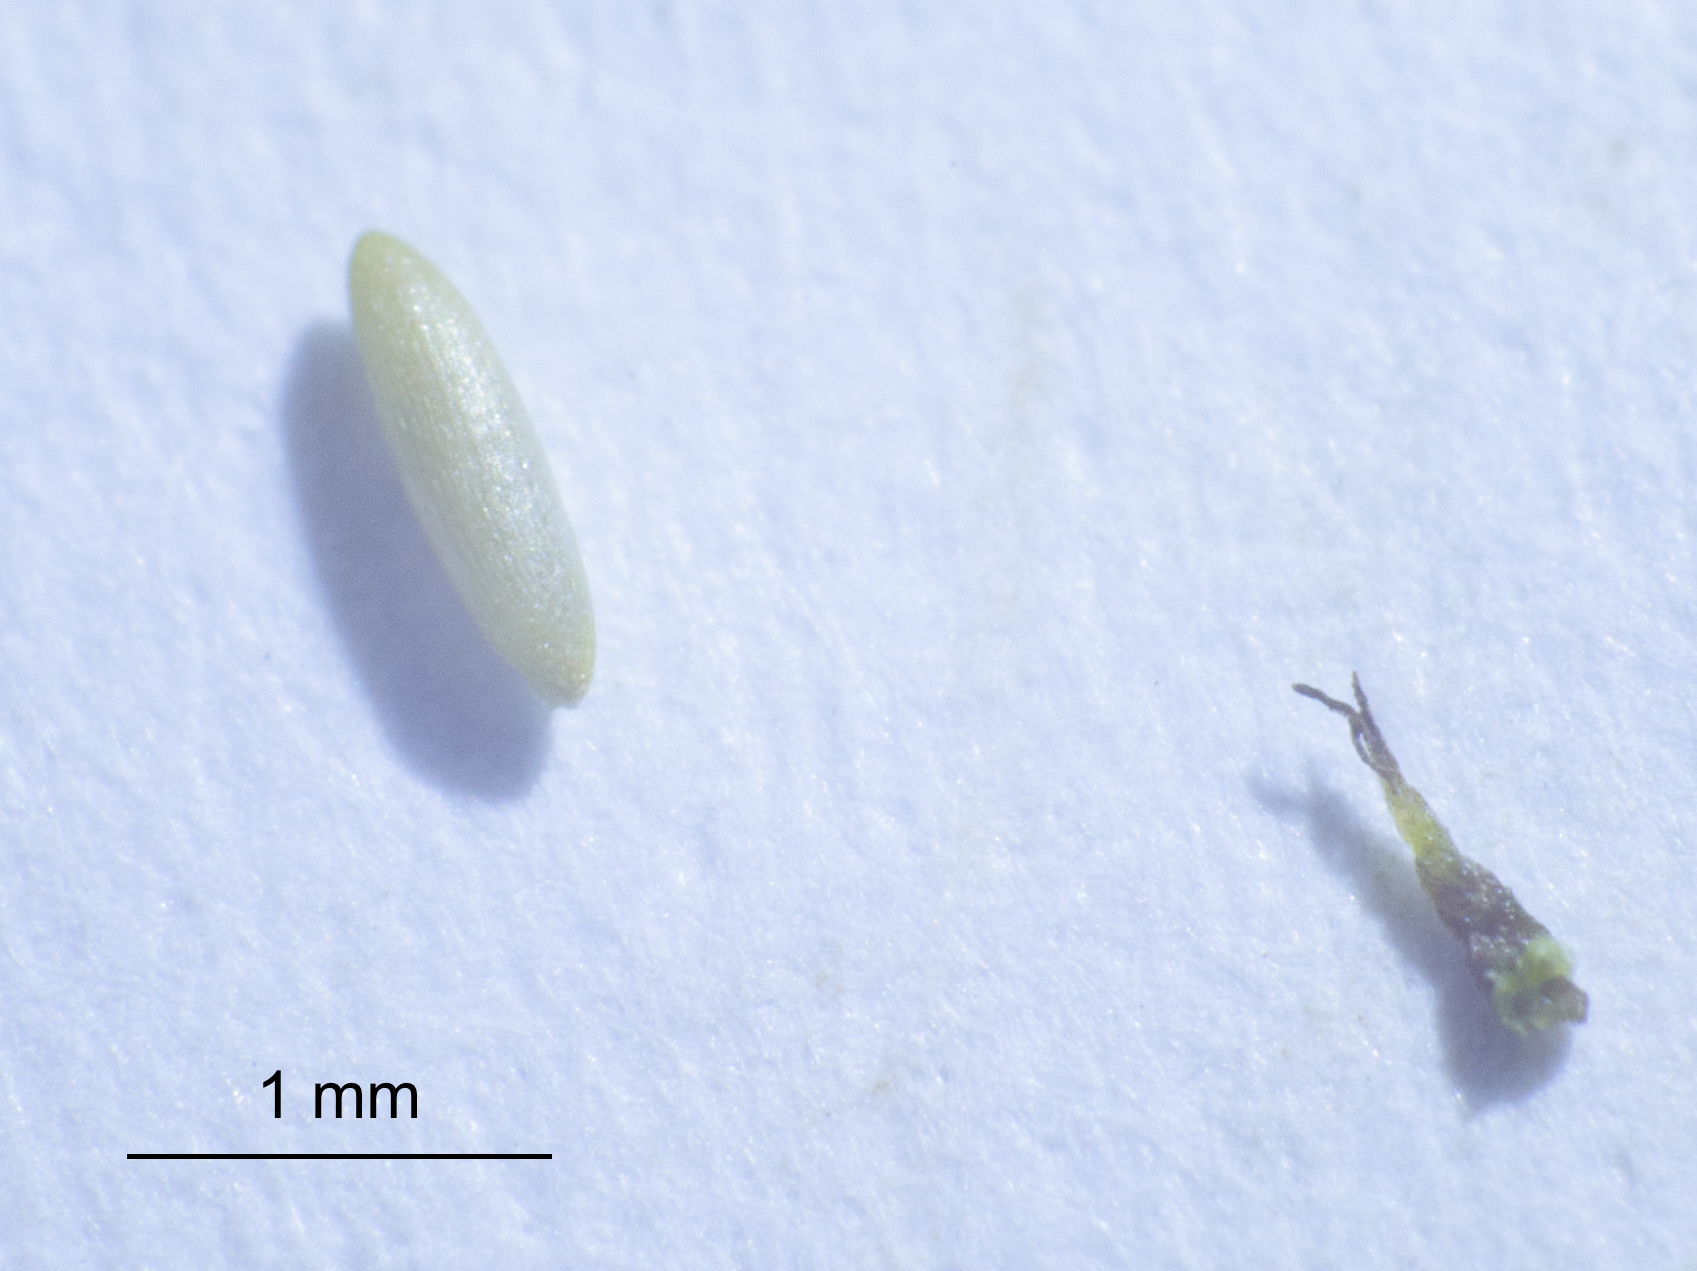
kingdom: Plantae
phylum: Tracheophyta
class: Liliopsida
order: Alismatales
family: Hydrocharitaceae
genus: Najas
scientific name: Najas indica
